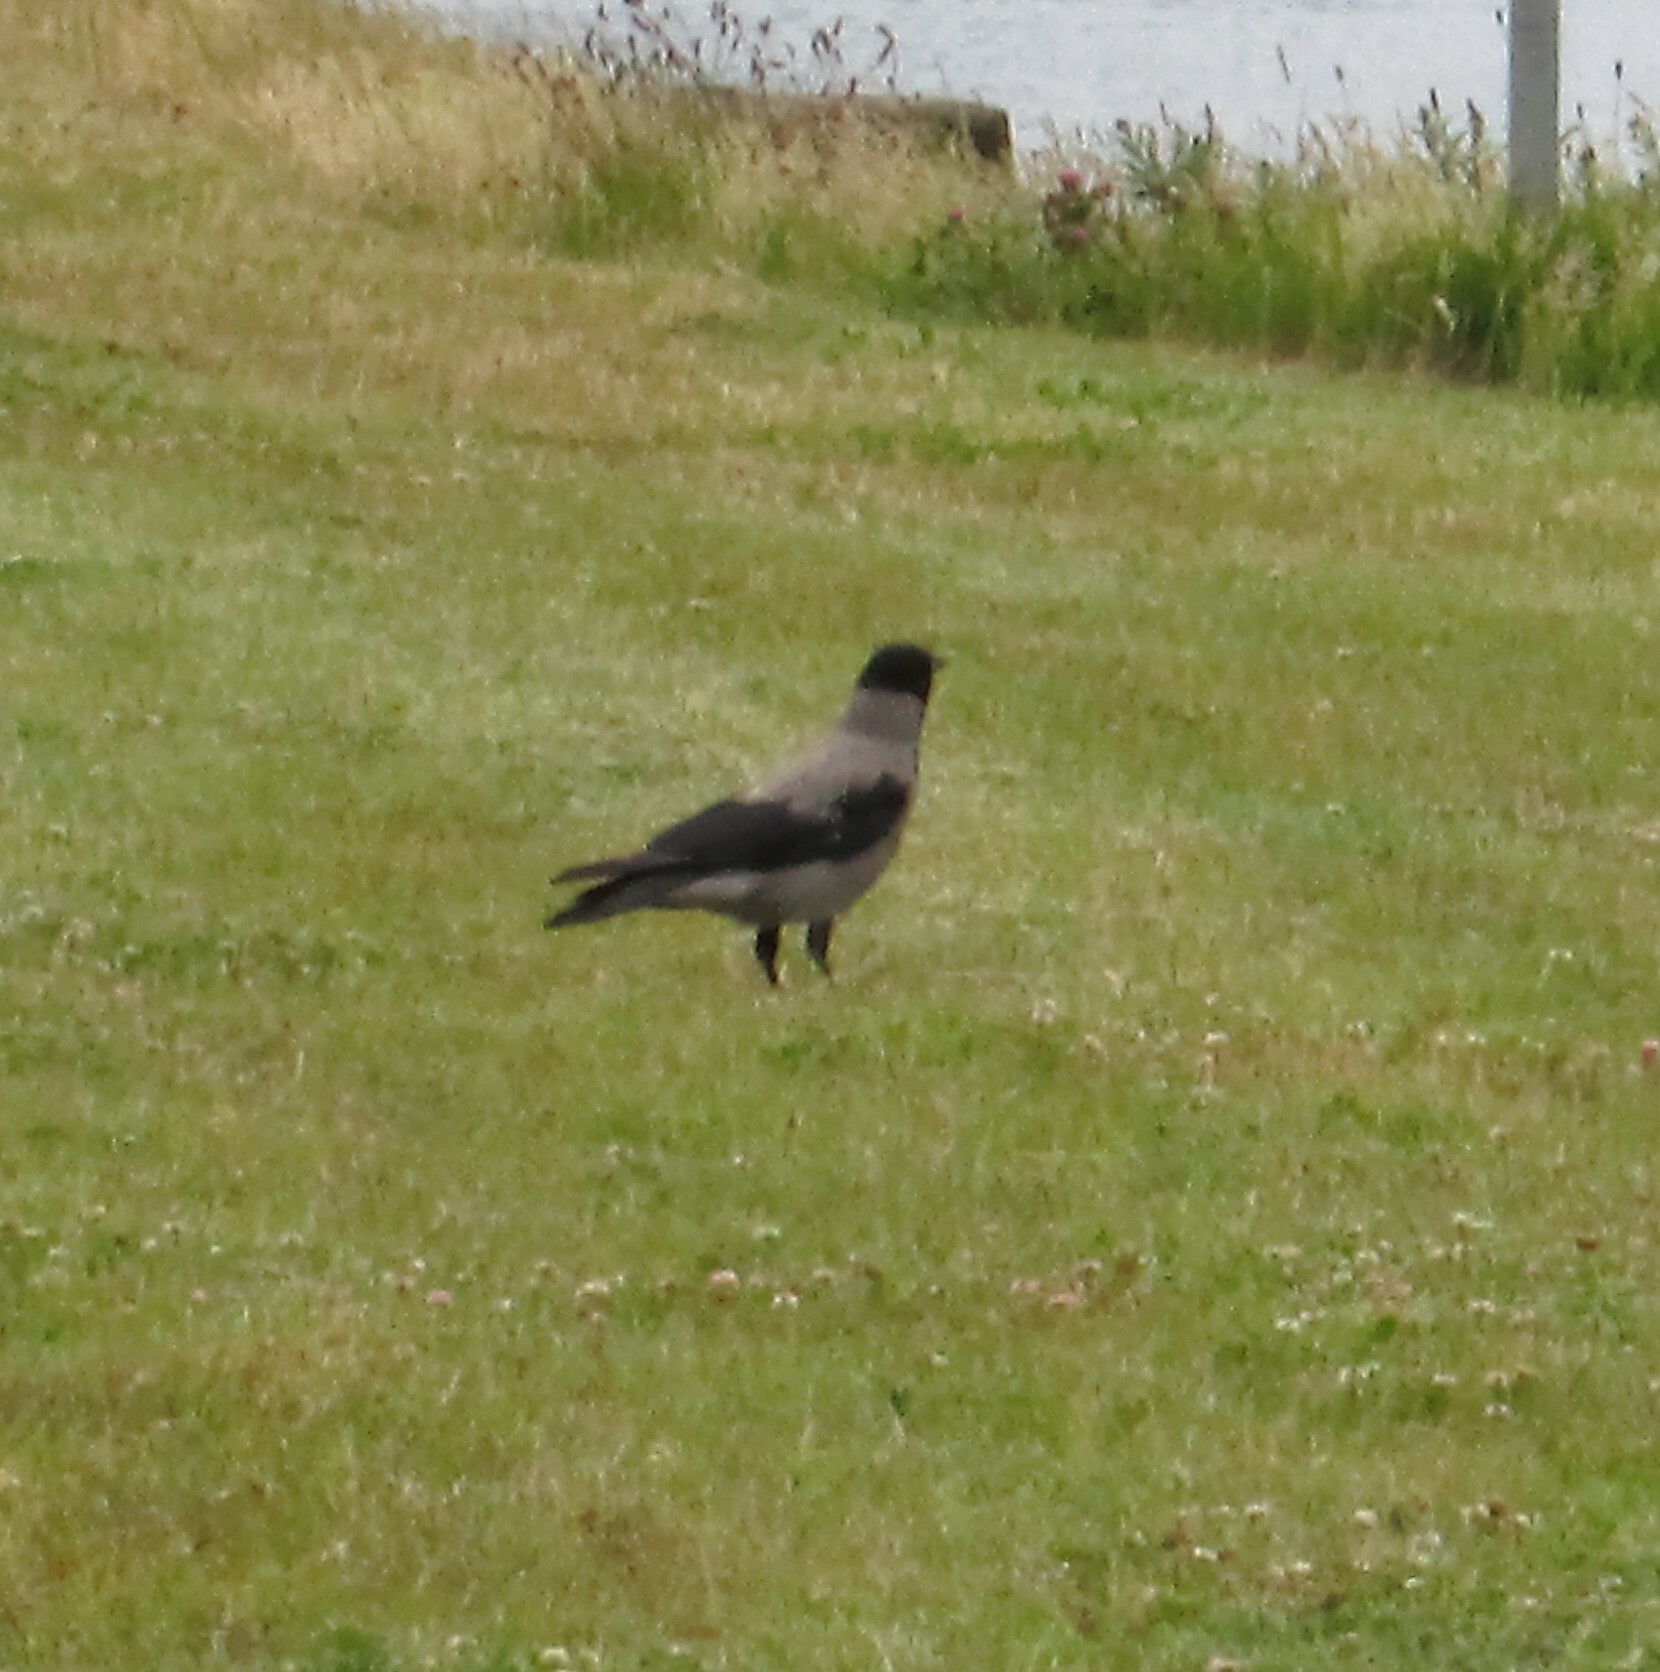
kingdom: Animalia
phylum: Chordata
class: Aves
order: Passeriformes
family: Corvidae
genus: Corvus
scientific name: Corvus cornix
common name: Hooded crow
